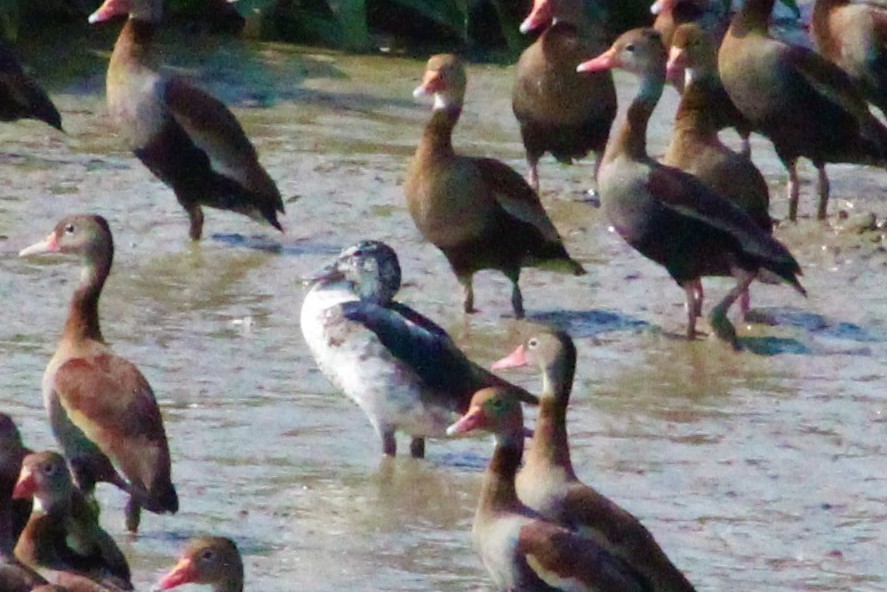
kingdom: Animalia
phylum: Chordata
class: Aves
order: Anseriformes
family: Anatidae
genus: Sarkidiornis
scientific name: Sarkidiornis sylvicola
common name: Comb duck
